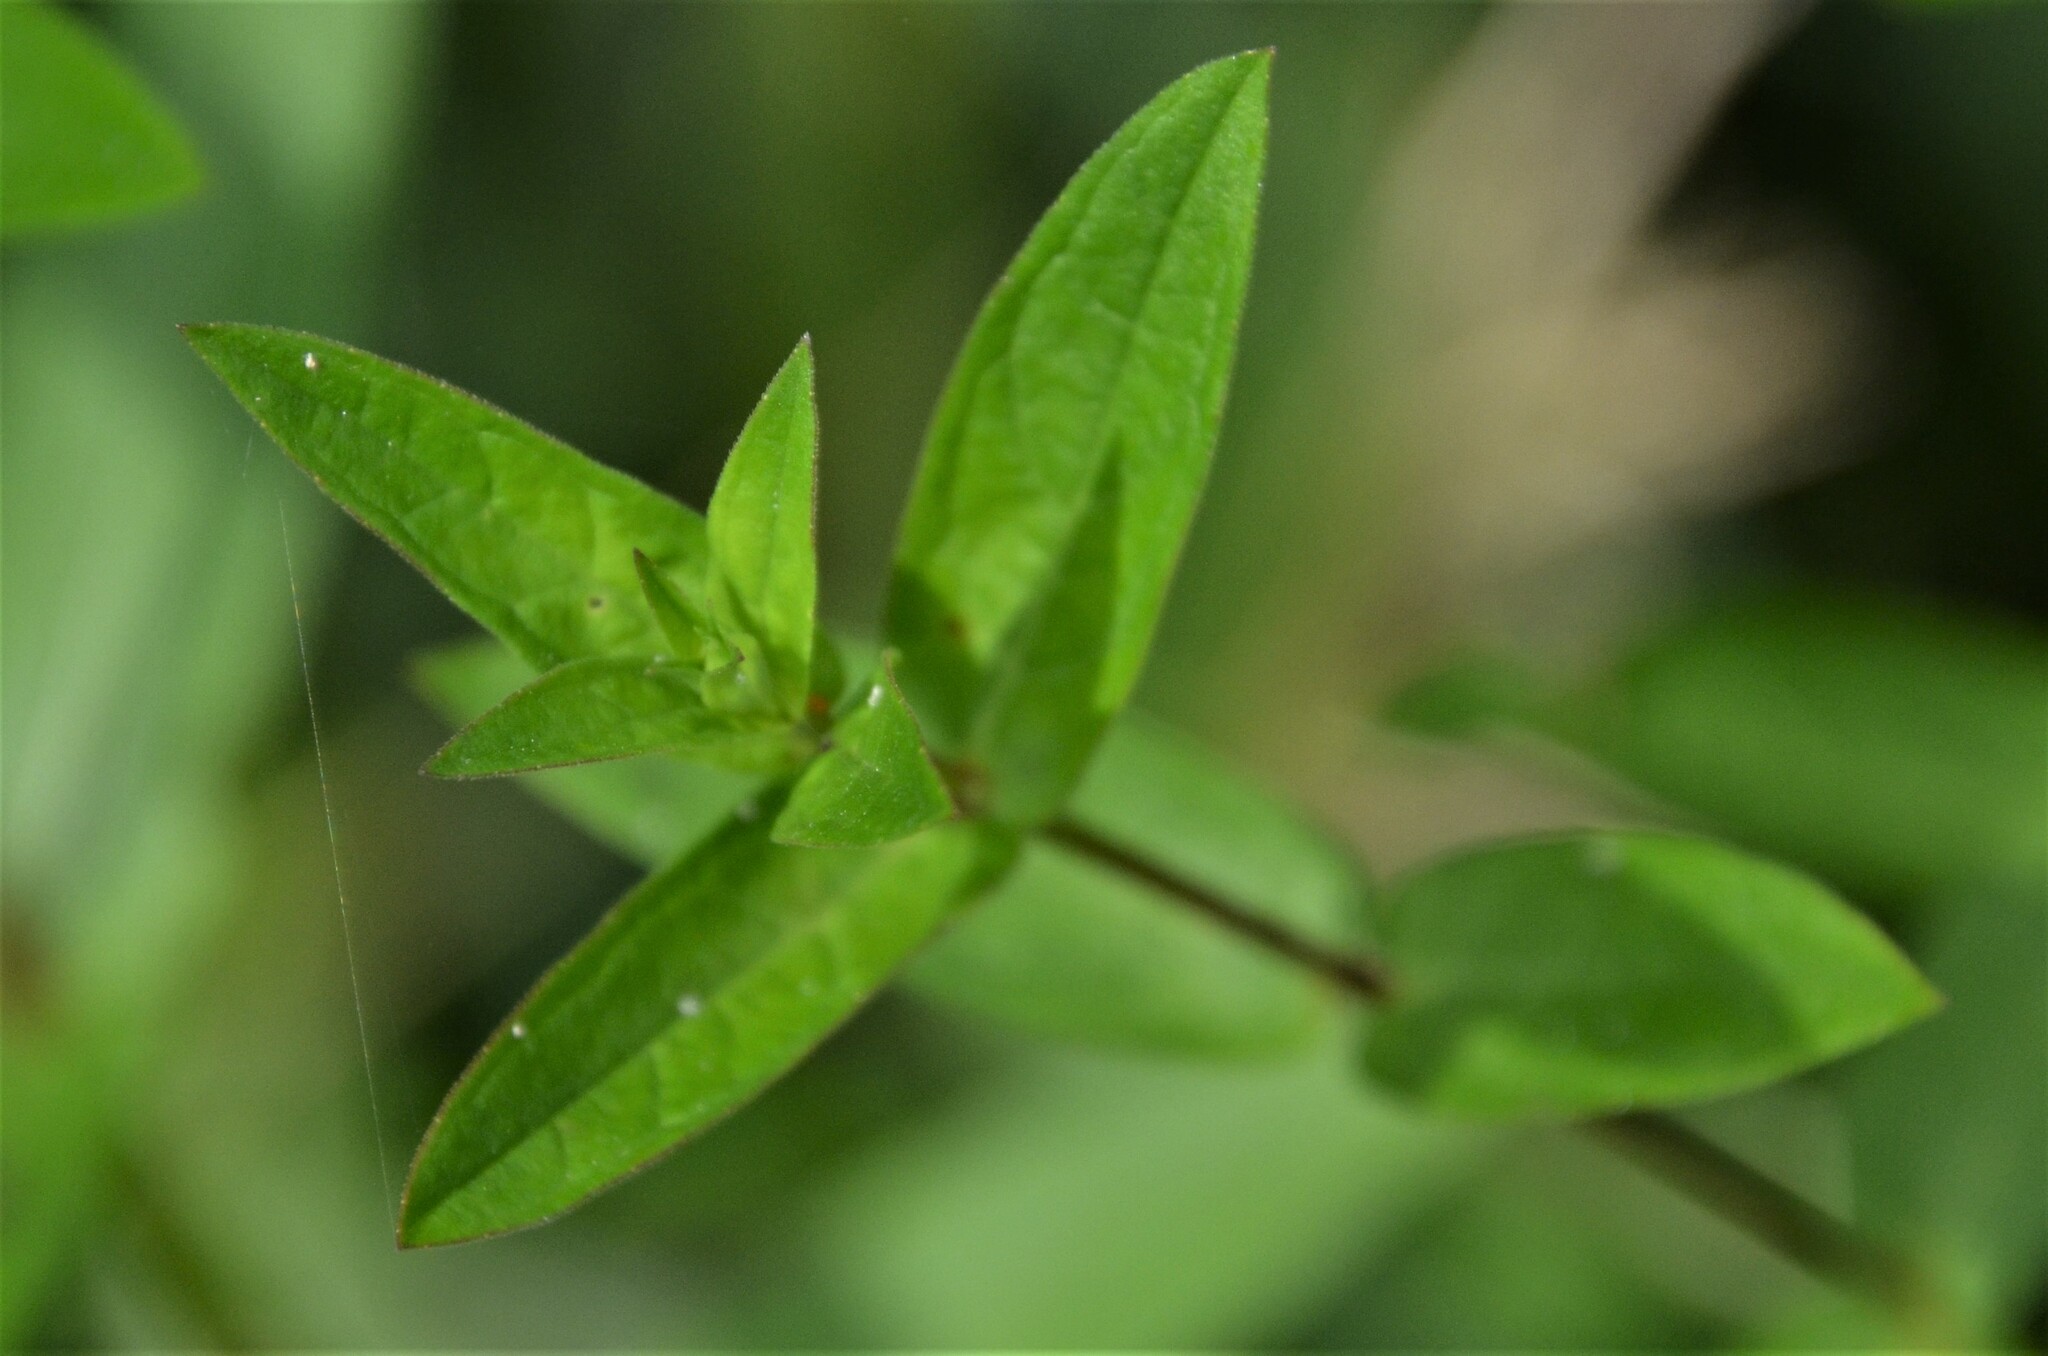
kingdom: Plantae
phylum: Tracheophyta
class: Magnoliopsida
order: Myrtales
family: Lythraceae
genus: Lythrum
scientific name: Lythrum salicaria
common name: Purple loosestrife
